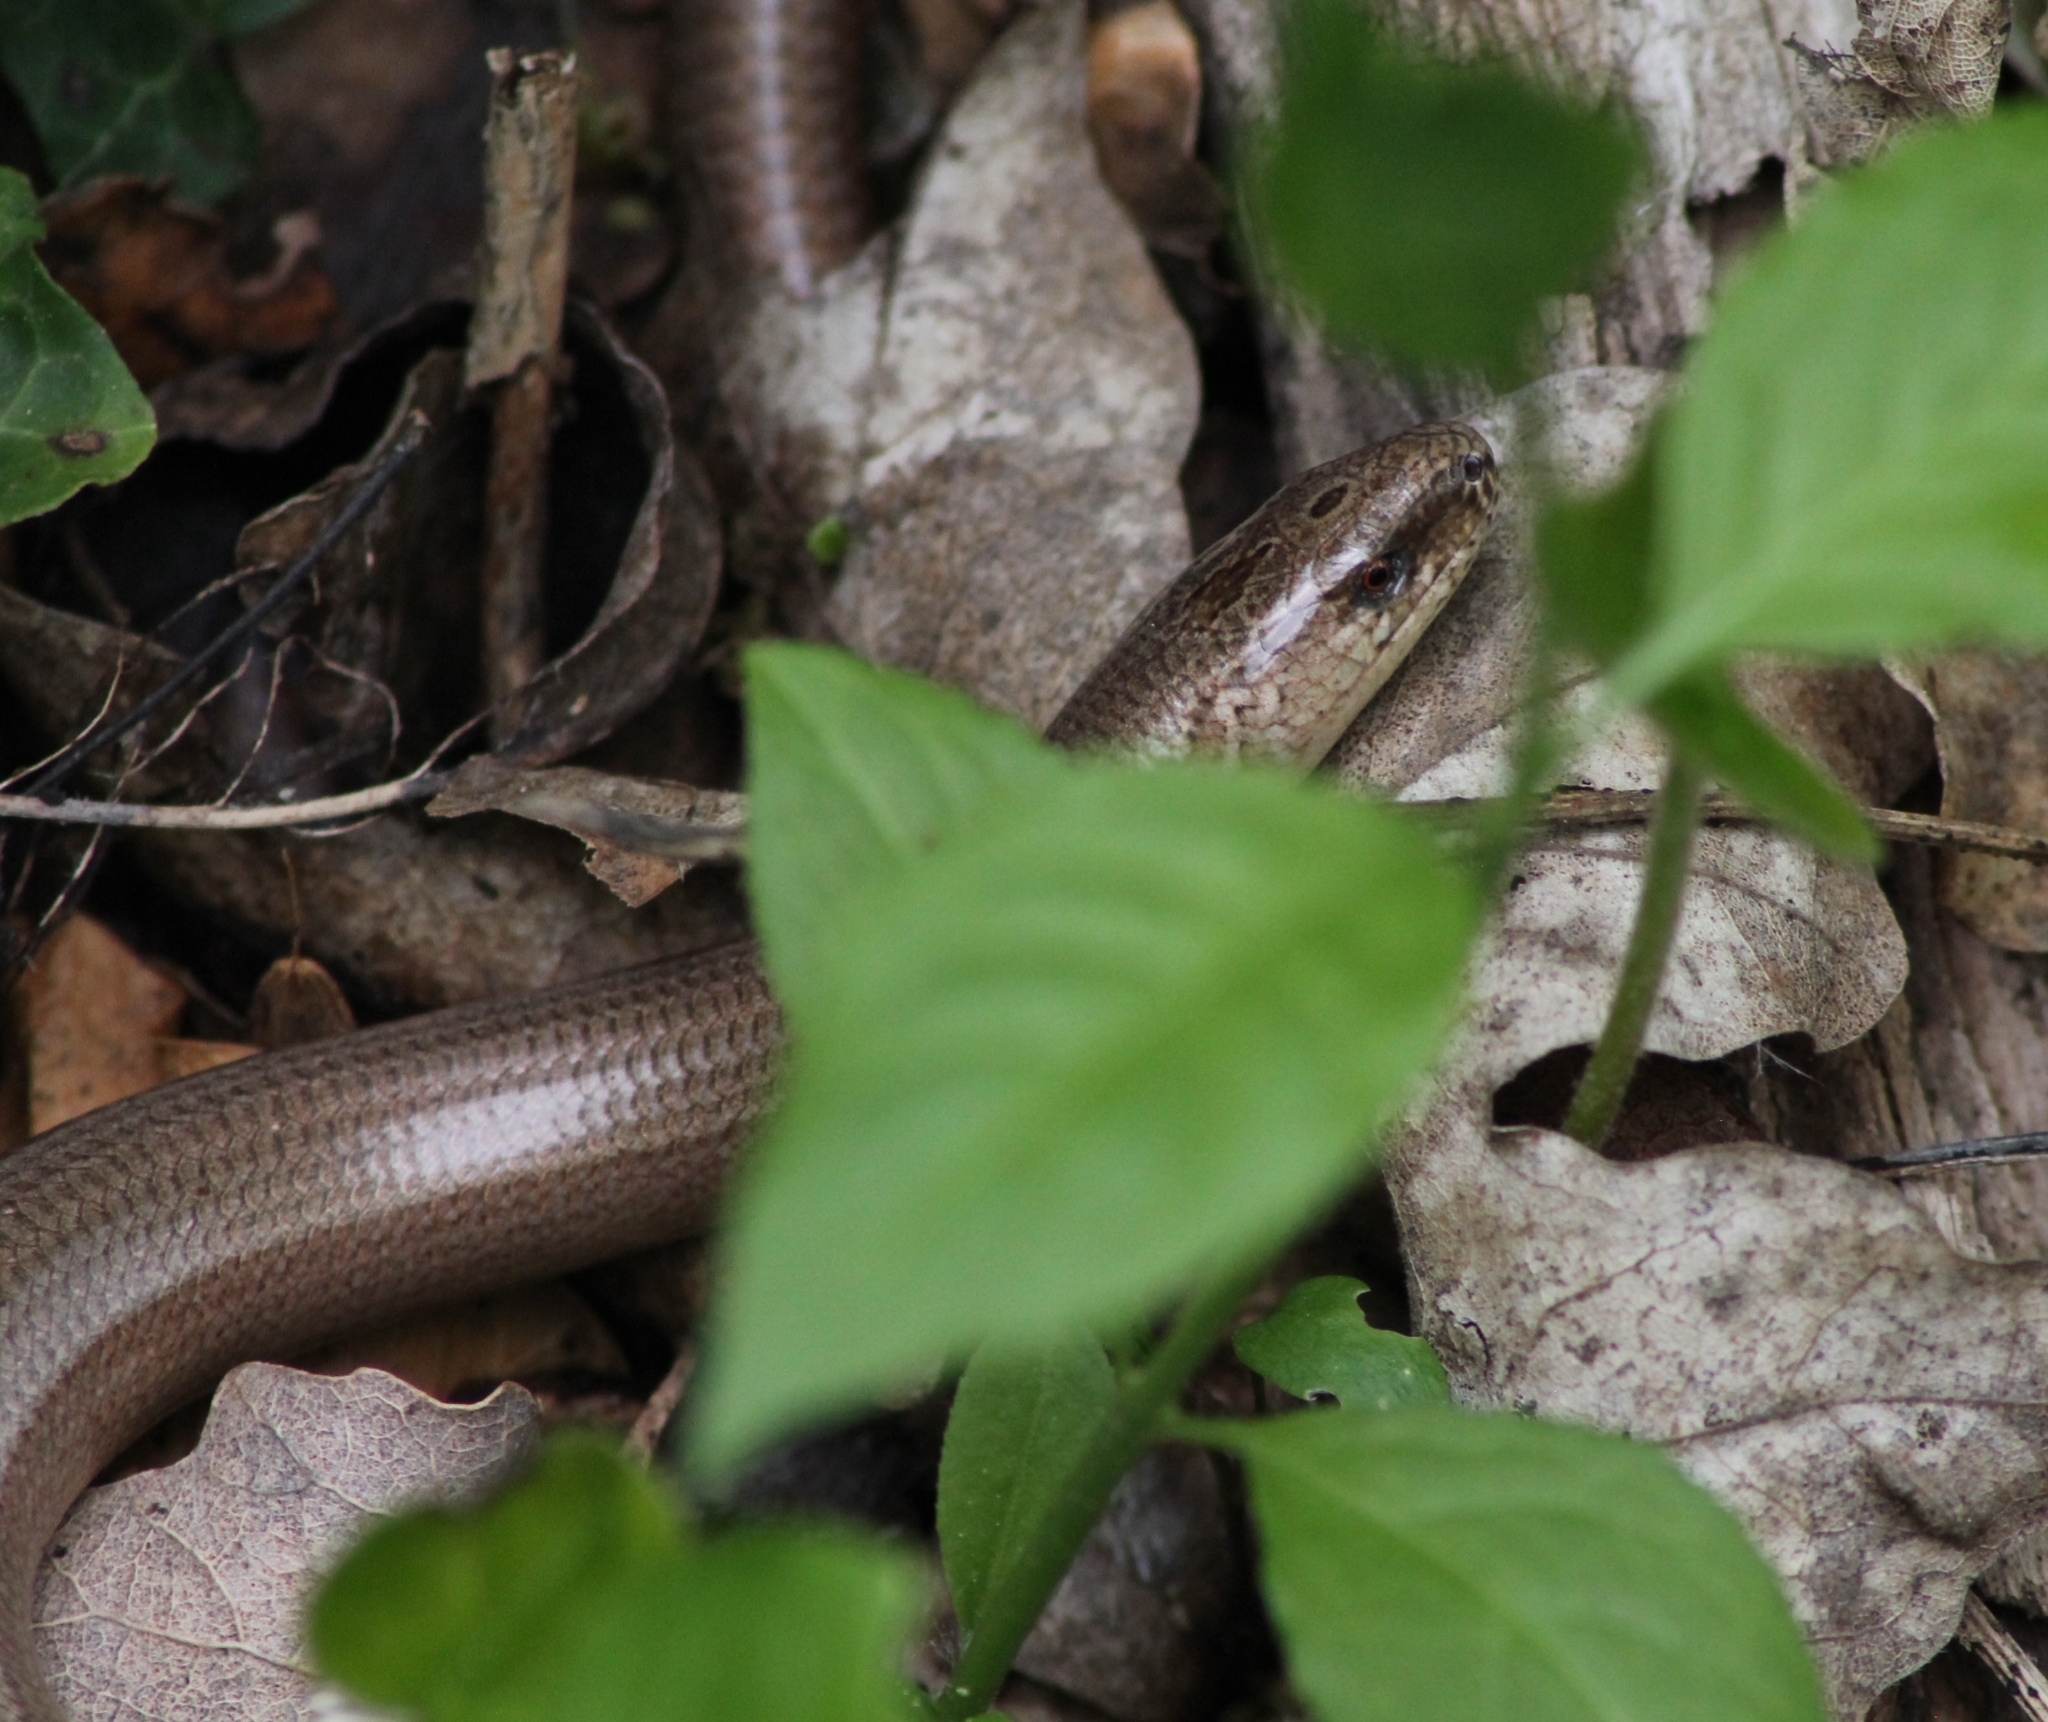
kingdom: Animalia
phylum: Chordata
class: Squamata
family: Anguidae
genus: Anguis
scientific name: Anguis fragilis
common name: Slow worm
